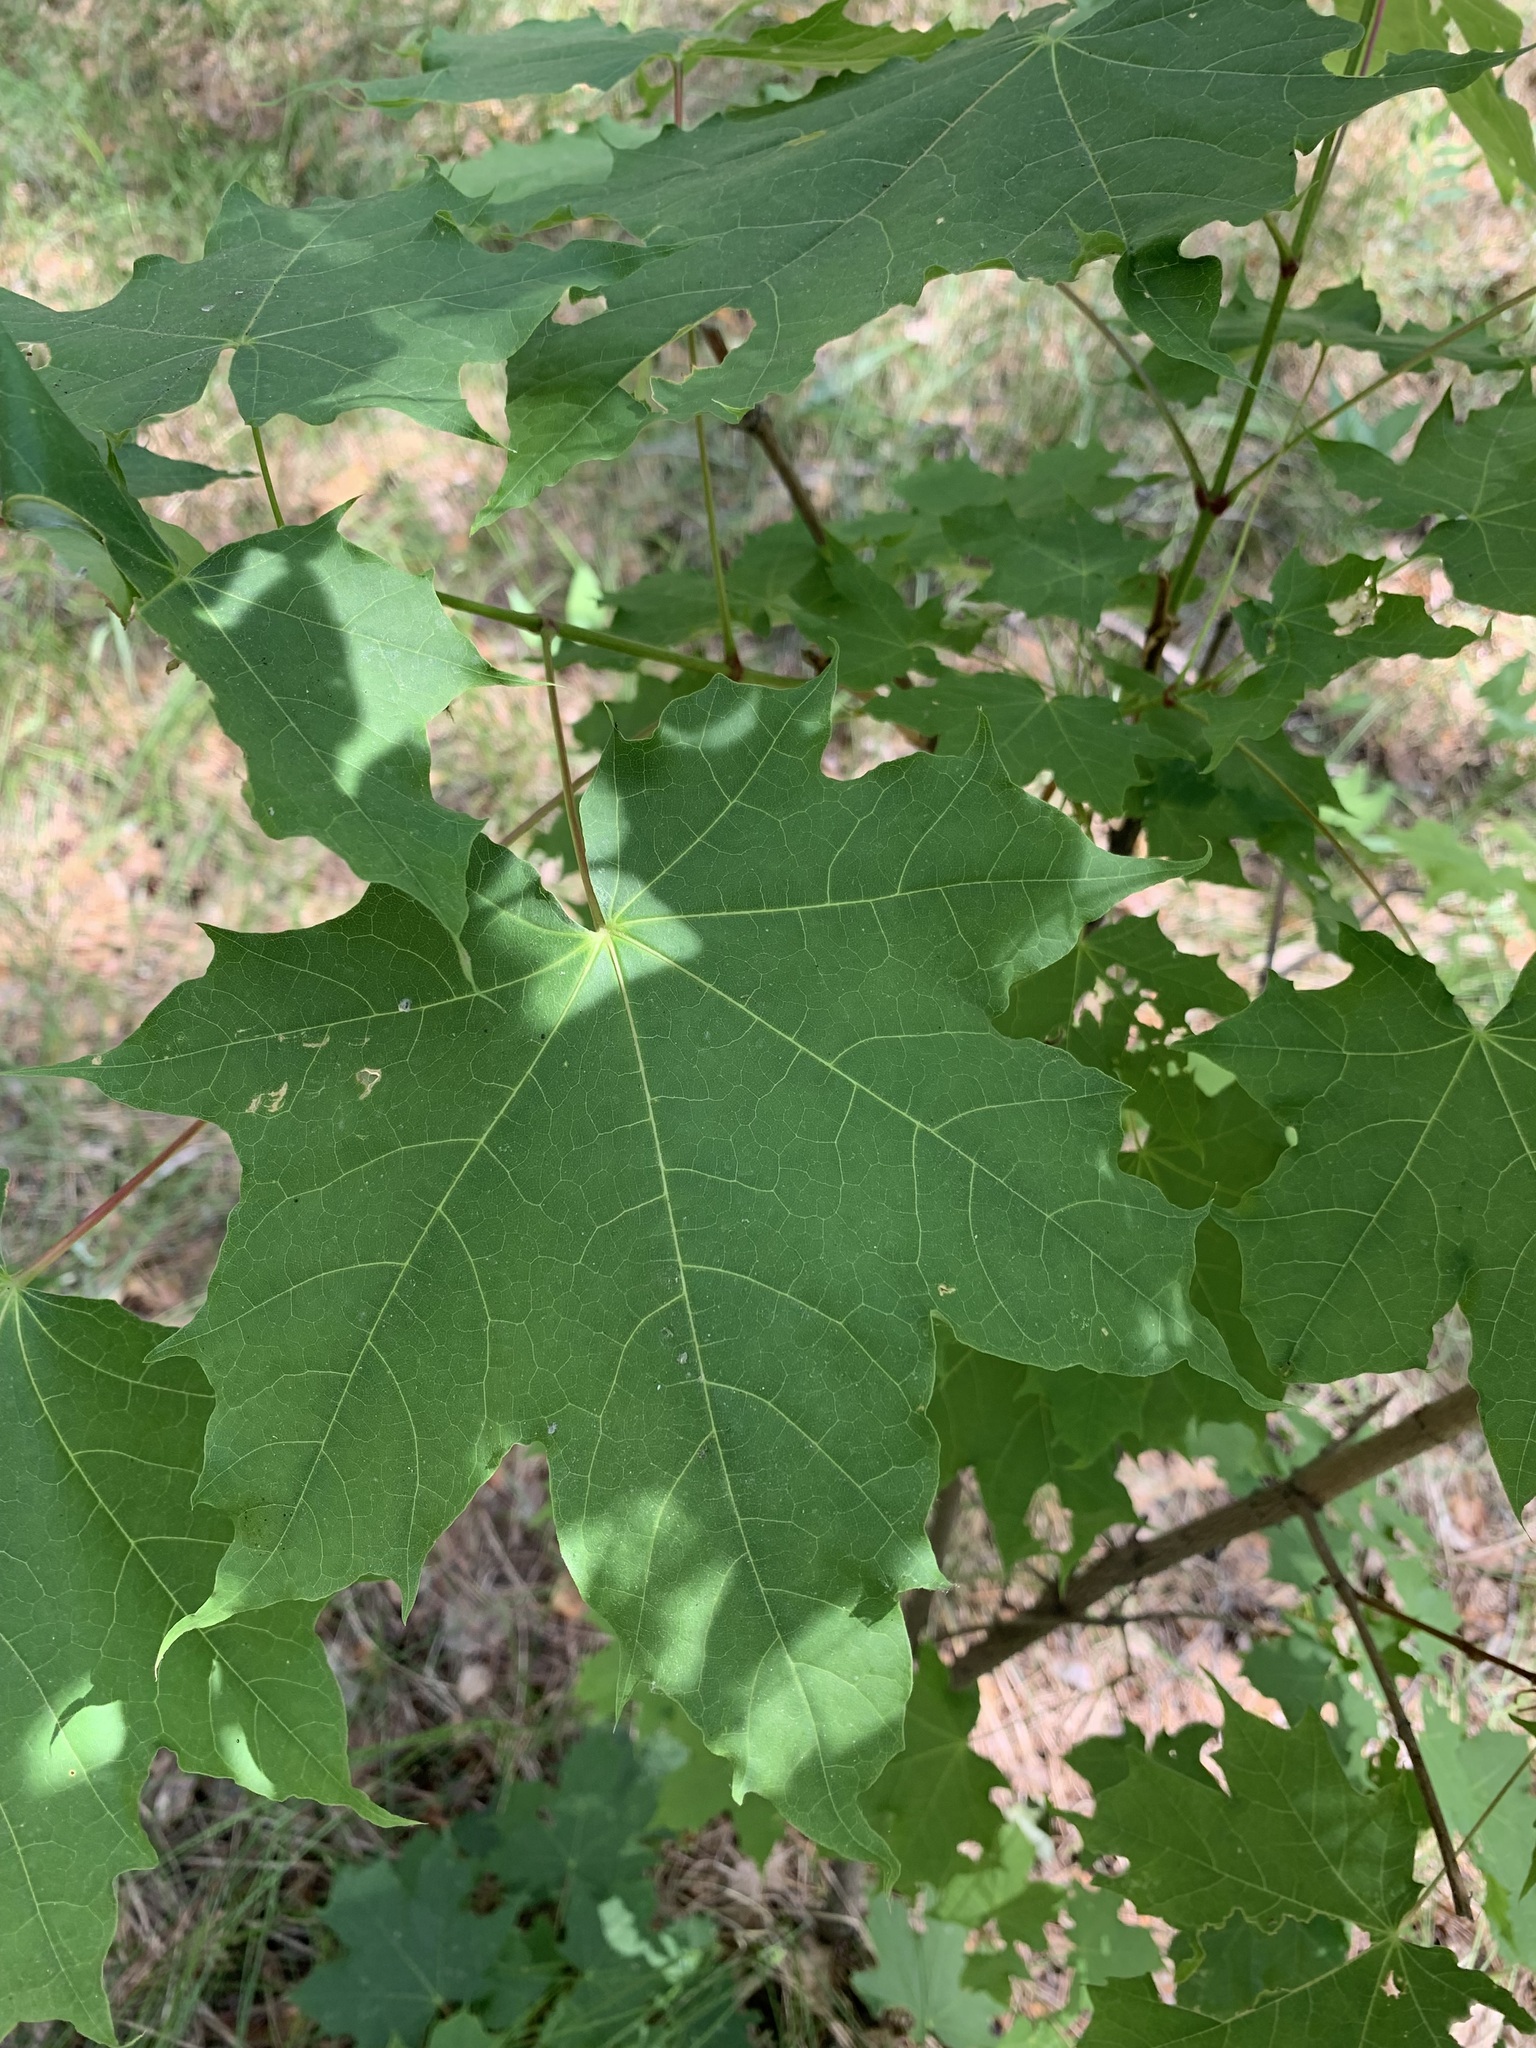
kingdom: Plantae
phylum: Tracheophyta
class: Magnoliopsida
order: Sapindales
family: Sapindaceae
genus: Acer
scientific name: Acer platanoides
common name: Norway maple
